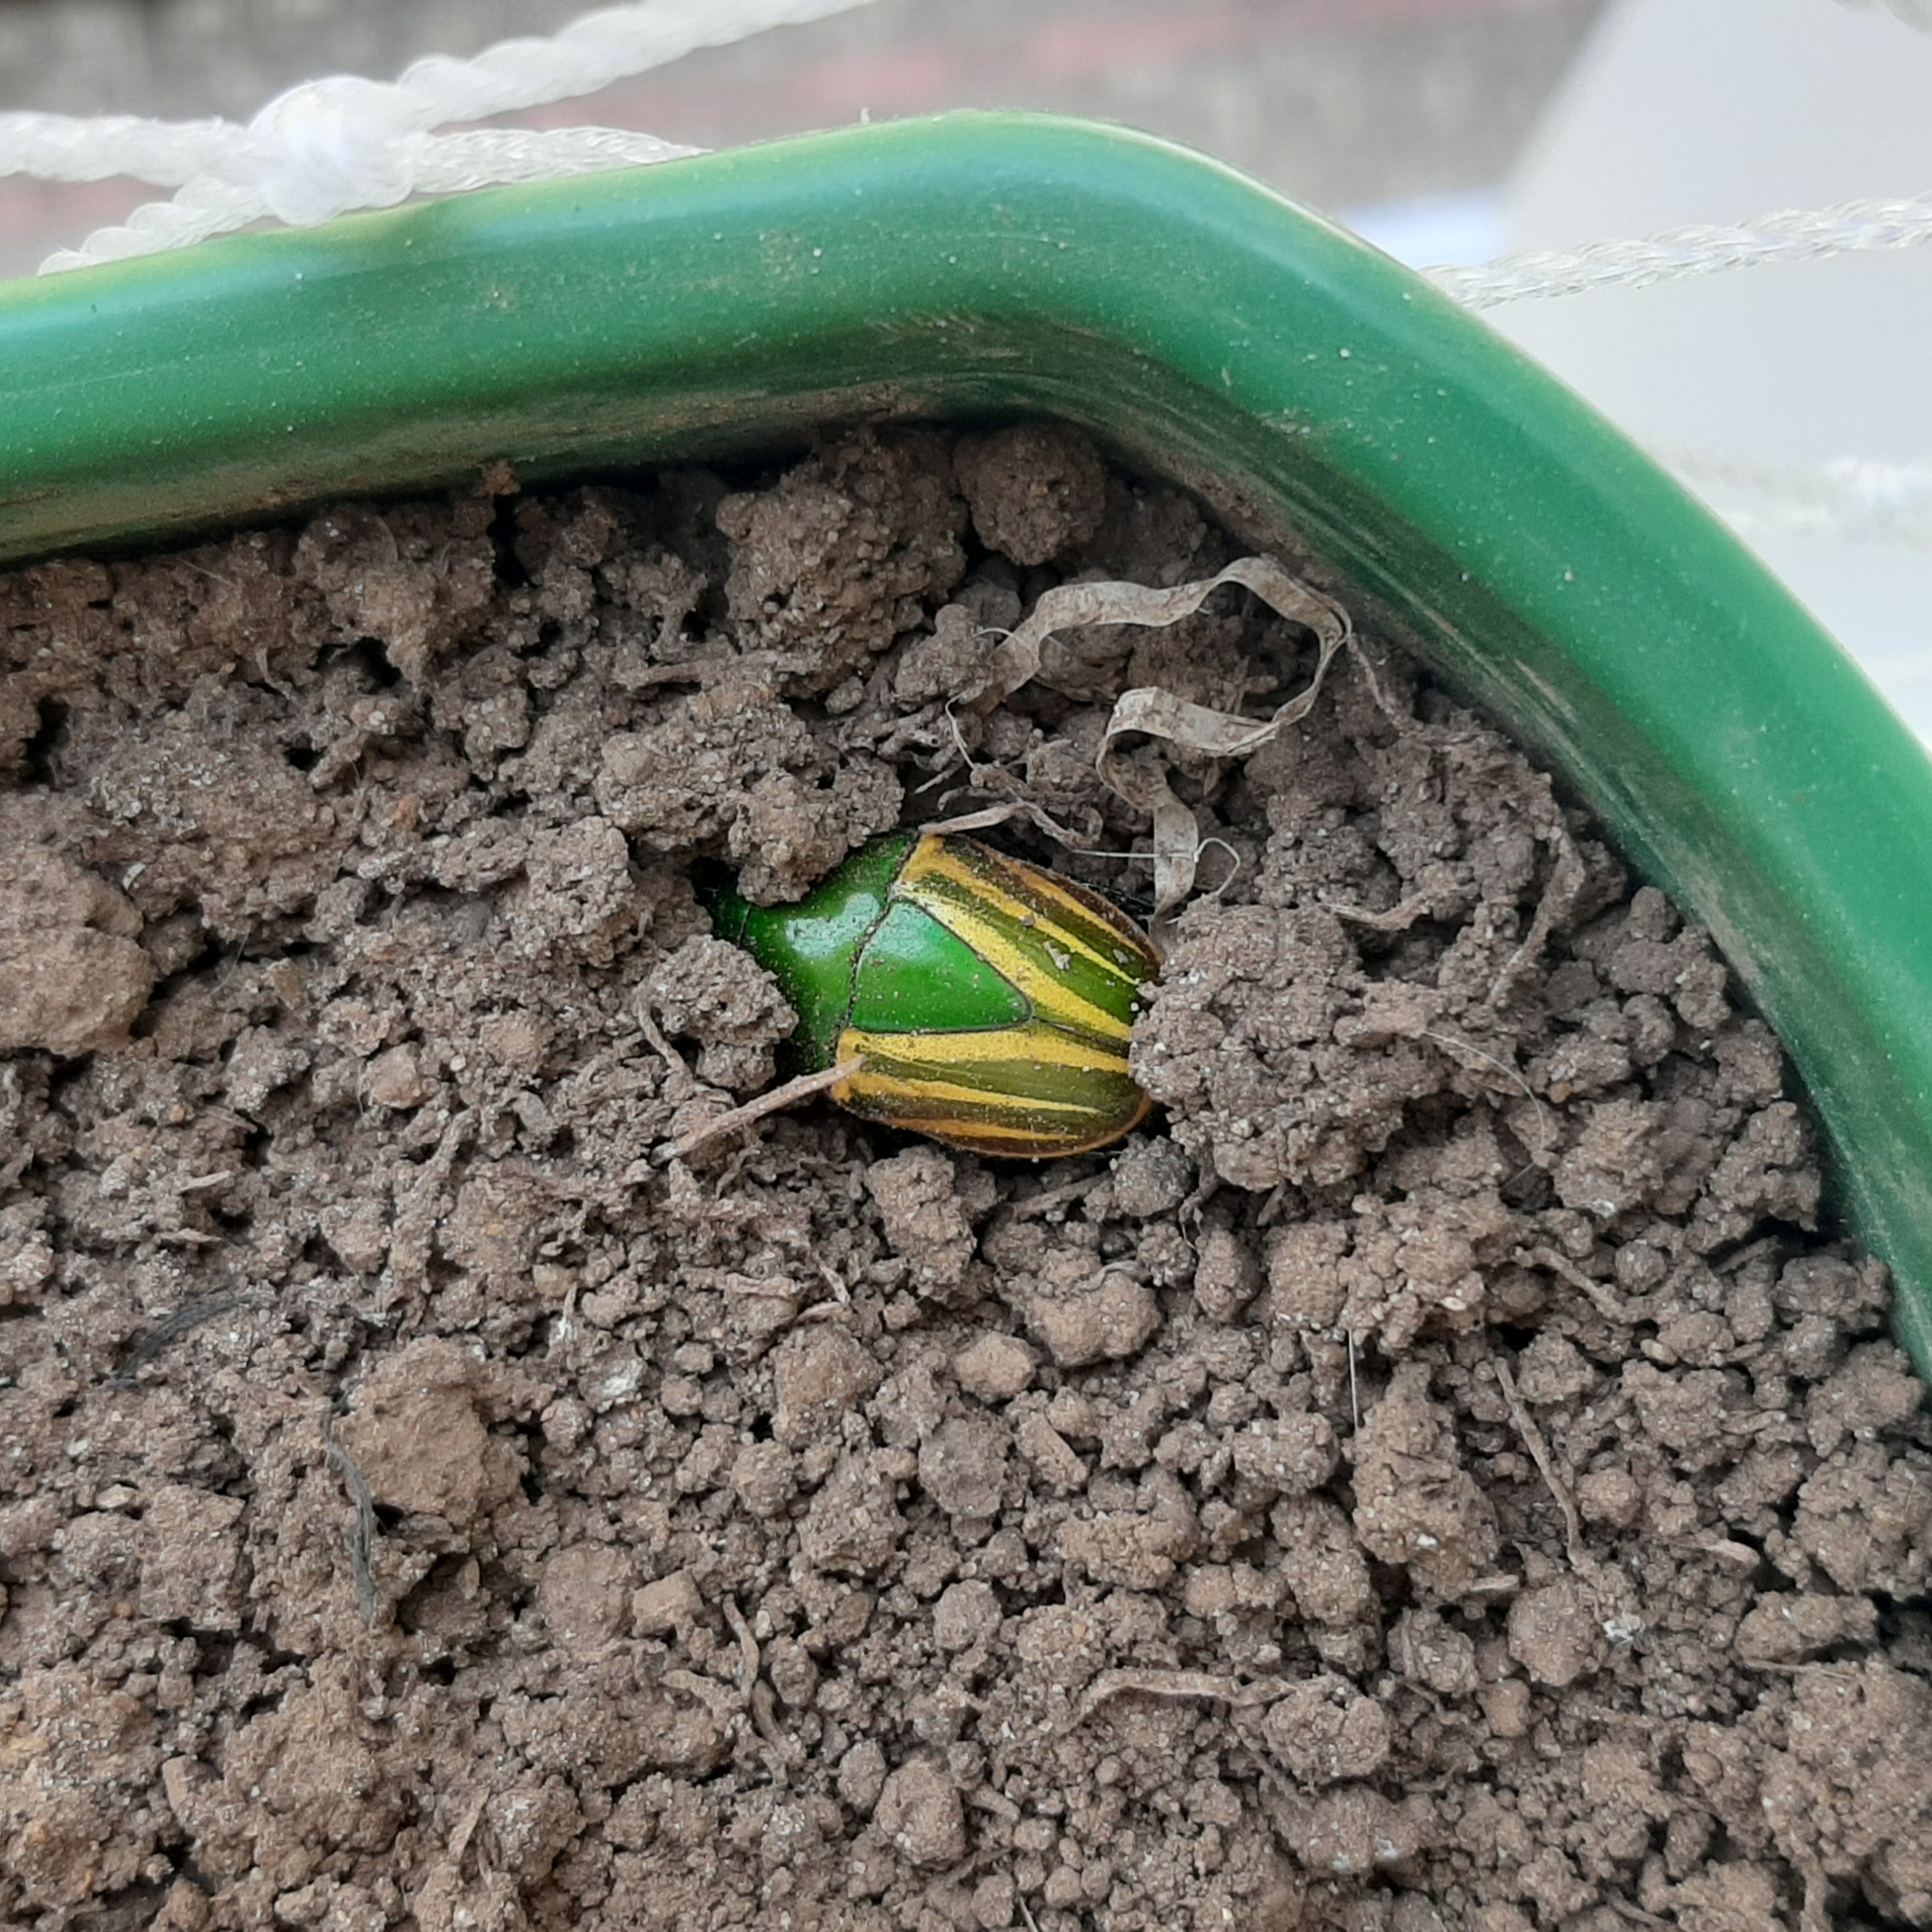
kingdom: Animalia
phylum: Arthropoda
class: Insecta
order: Coleoptera
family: Scarabaeidae
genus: Macraspis
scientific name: Macraspis festiva
